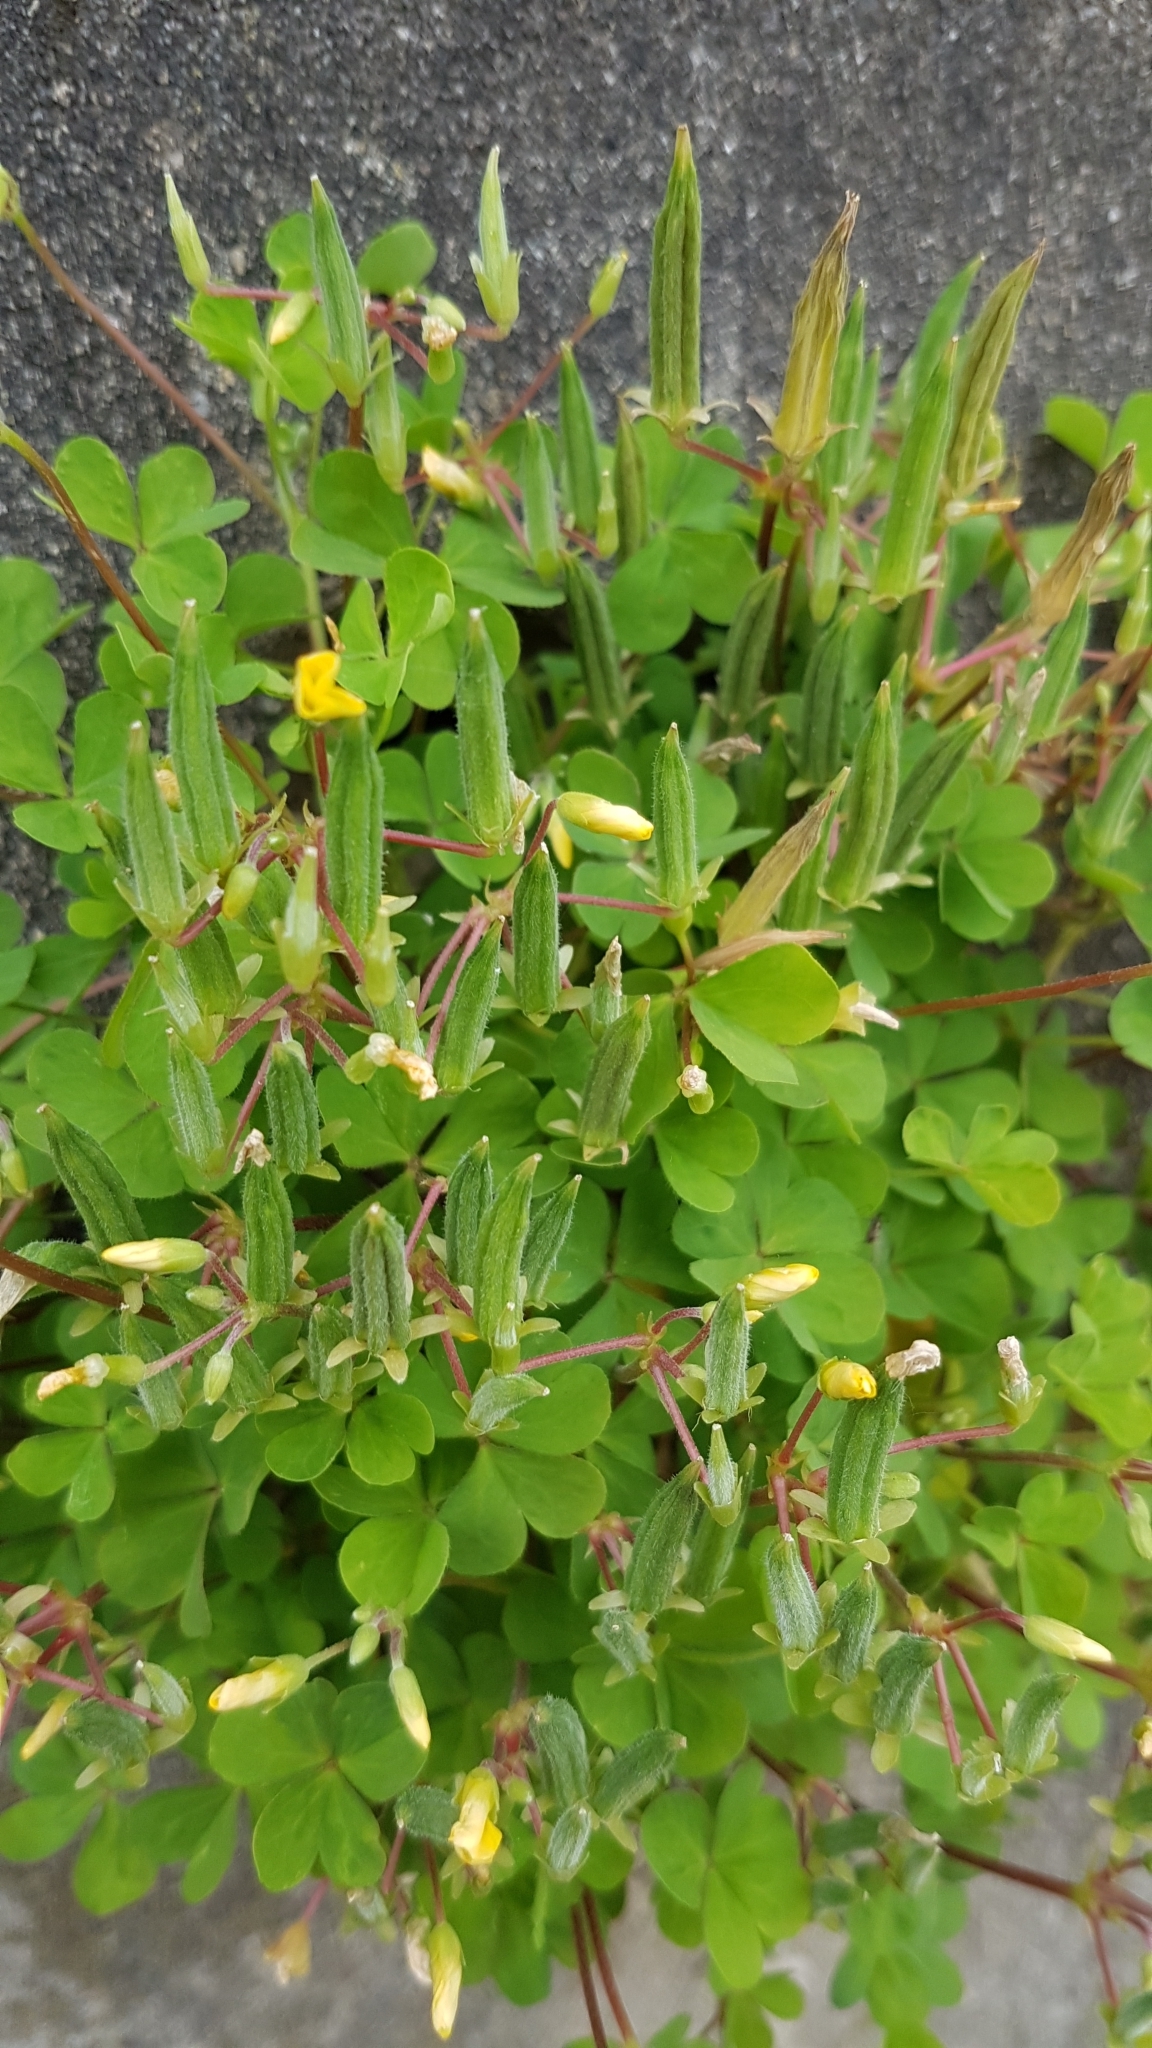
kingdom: Plantae
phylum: Tracheophyta
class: Magnoliopsida
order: Oxalidales
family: Oxalidaceae
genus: Oxalis
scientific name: Oxalis corniculata
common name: Procumbent yellow-sorrel
